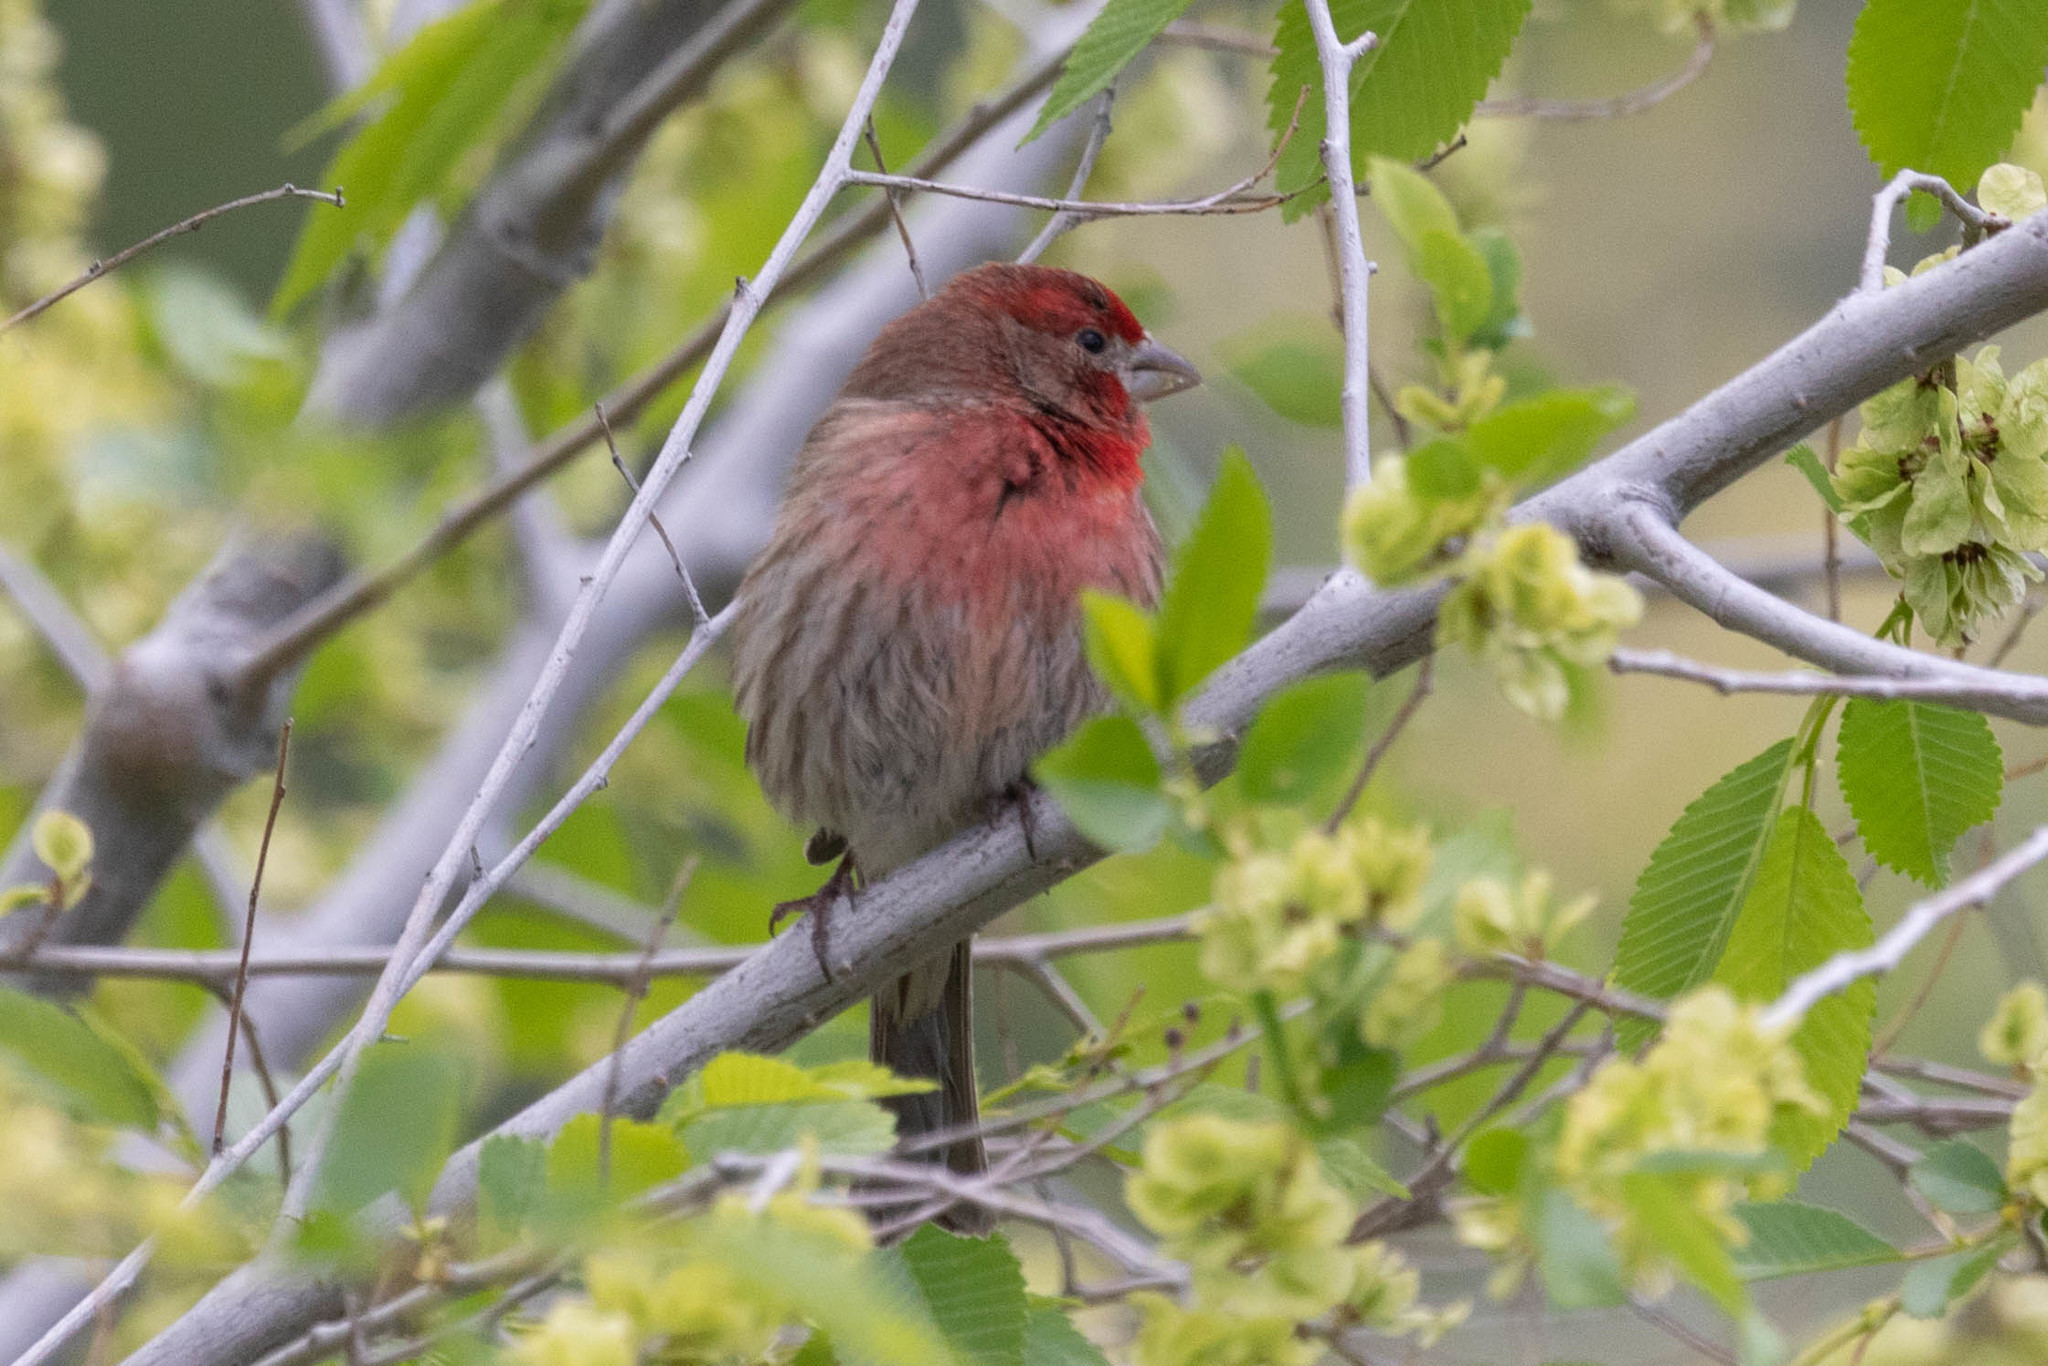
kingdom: Animalia
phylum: Chordata
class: Aves
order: Passeriformes
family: Fringillidae
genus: Haemorhous
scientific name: Haemorhous mexicanus
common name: House finch
